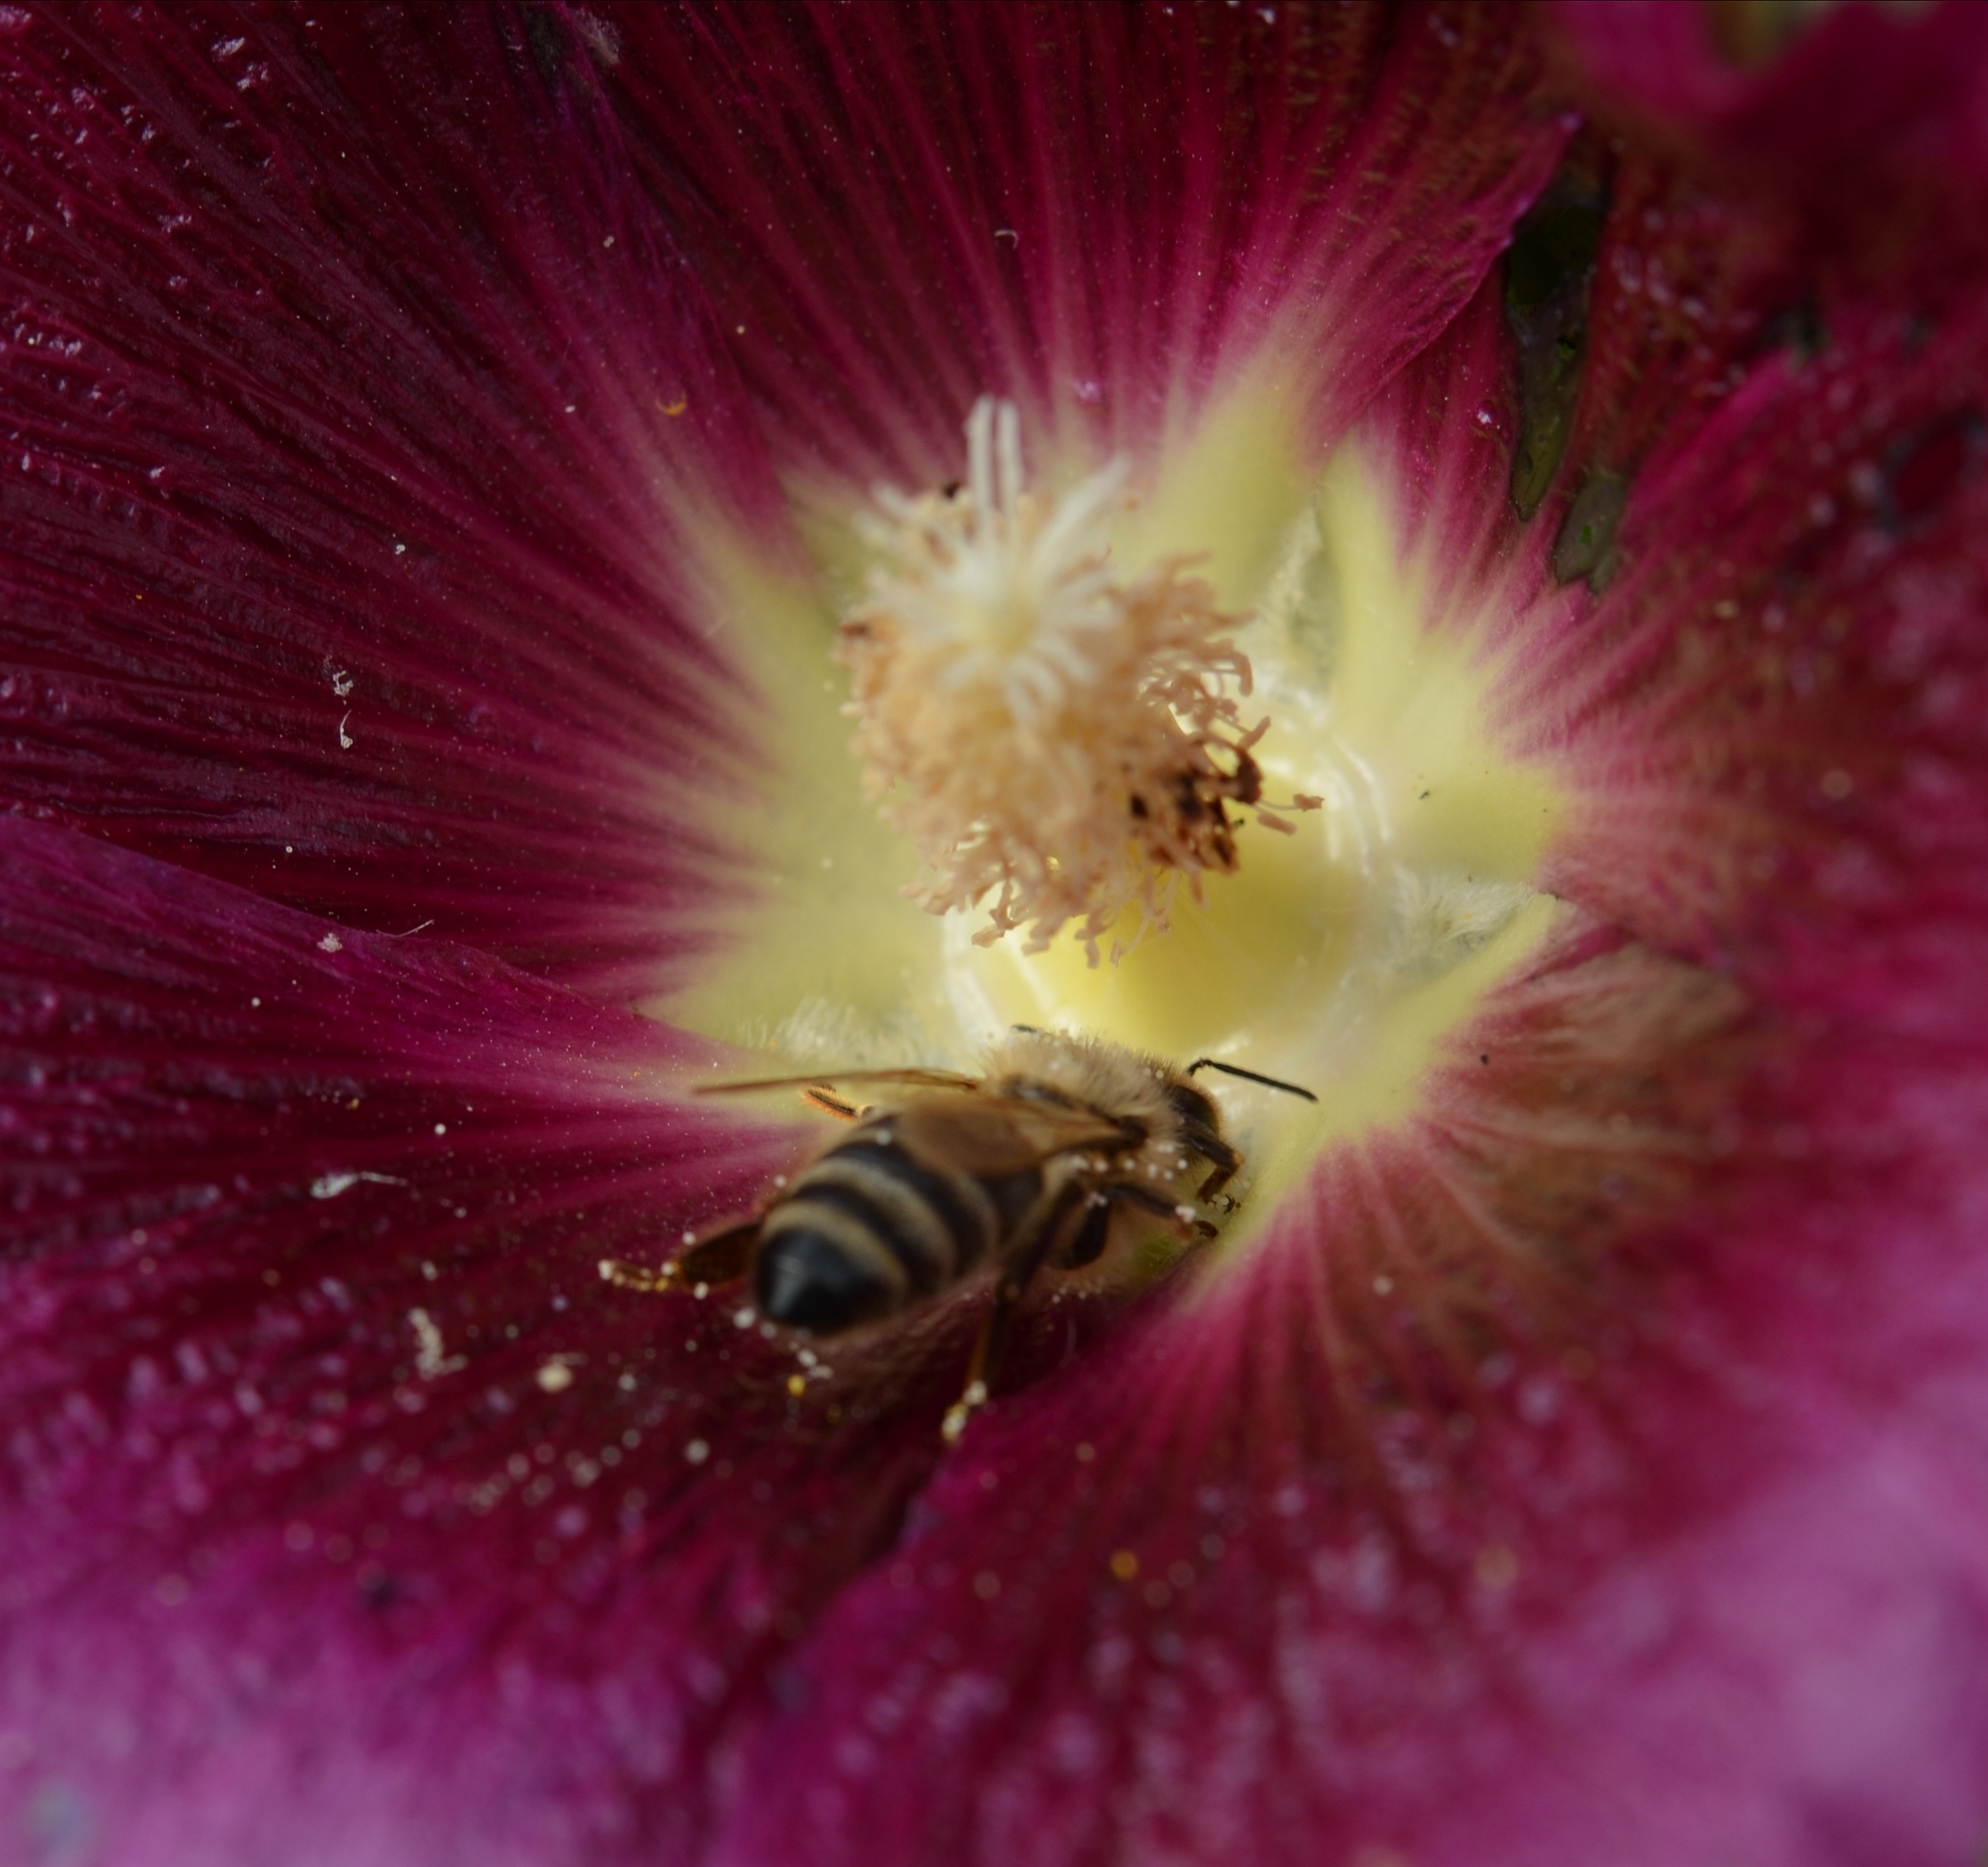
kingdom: Animalia
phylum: Arthropoda
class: Insecta
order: Hymenoptera
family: Apidae
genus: Apis
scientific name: Apis mellifera
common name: Honey bee
